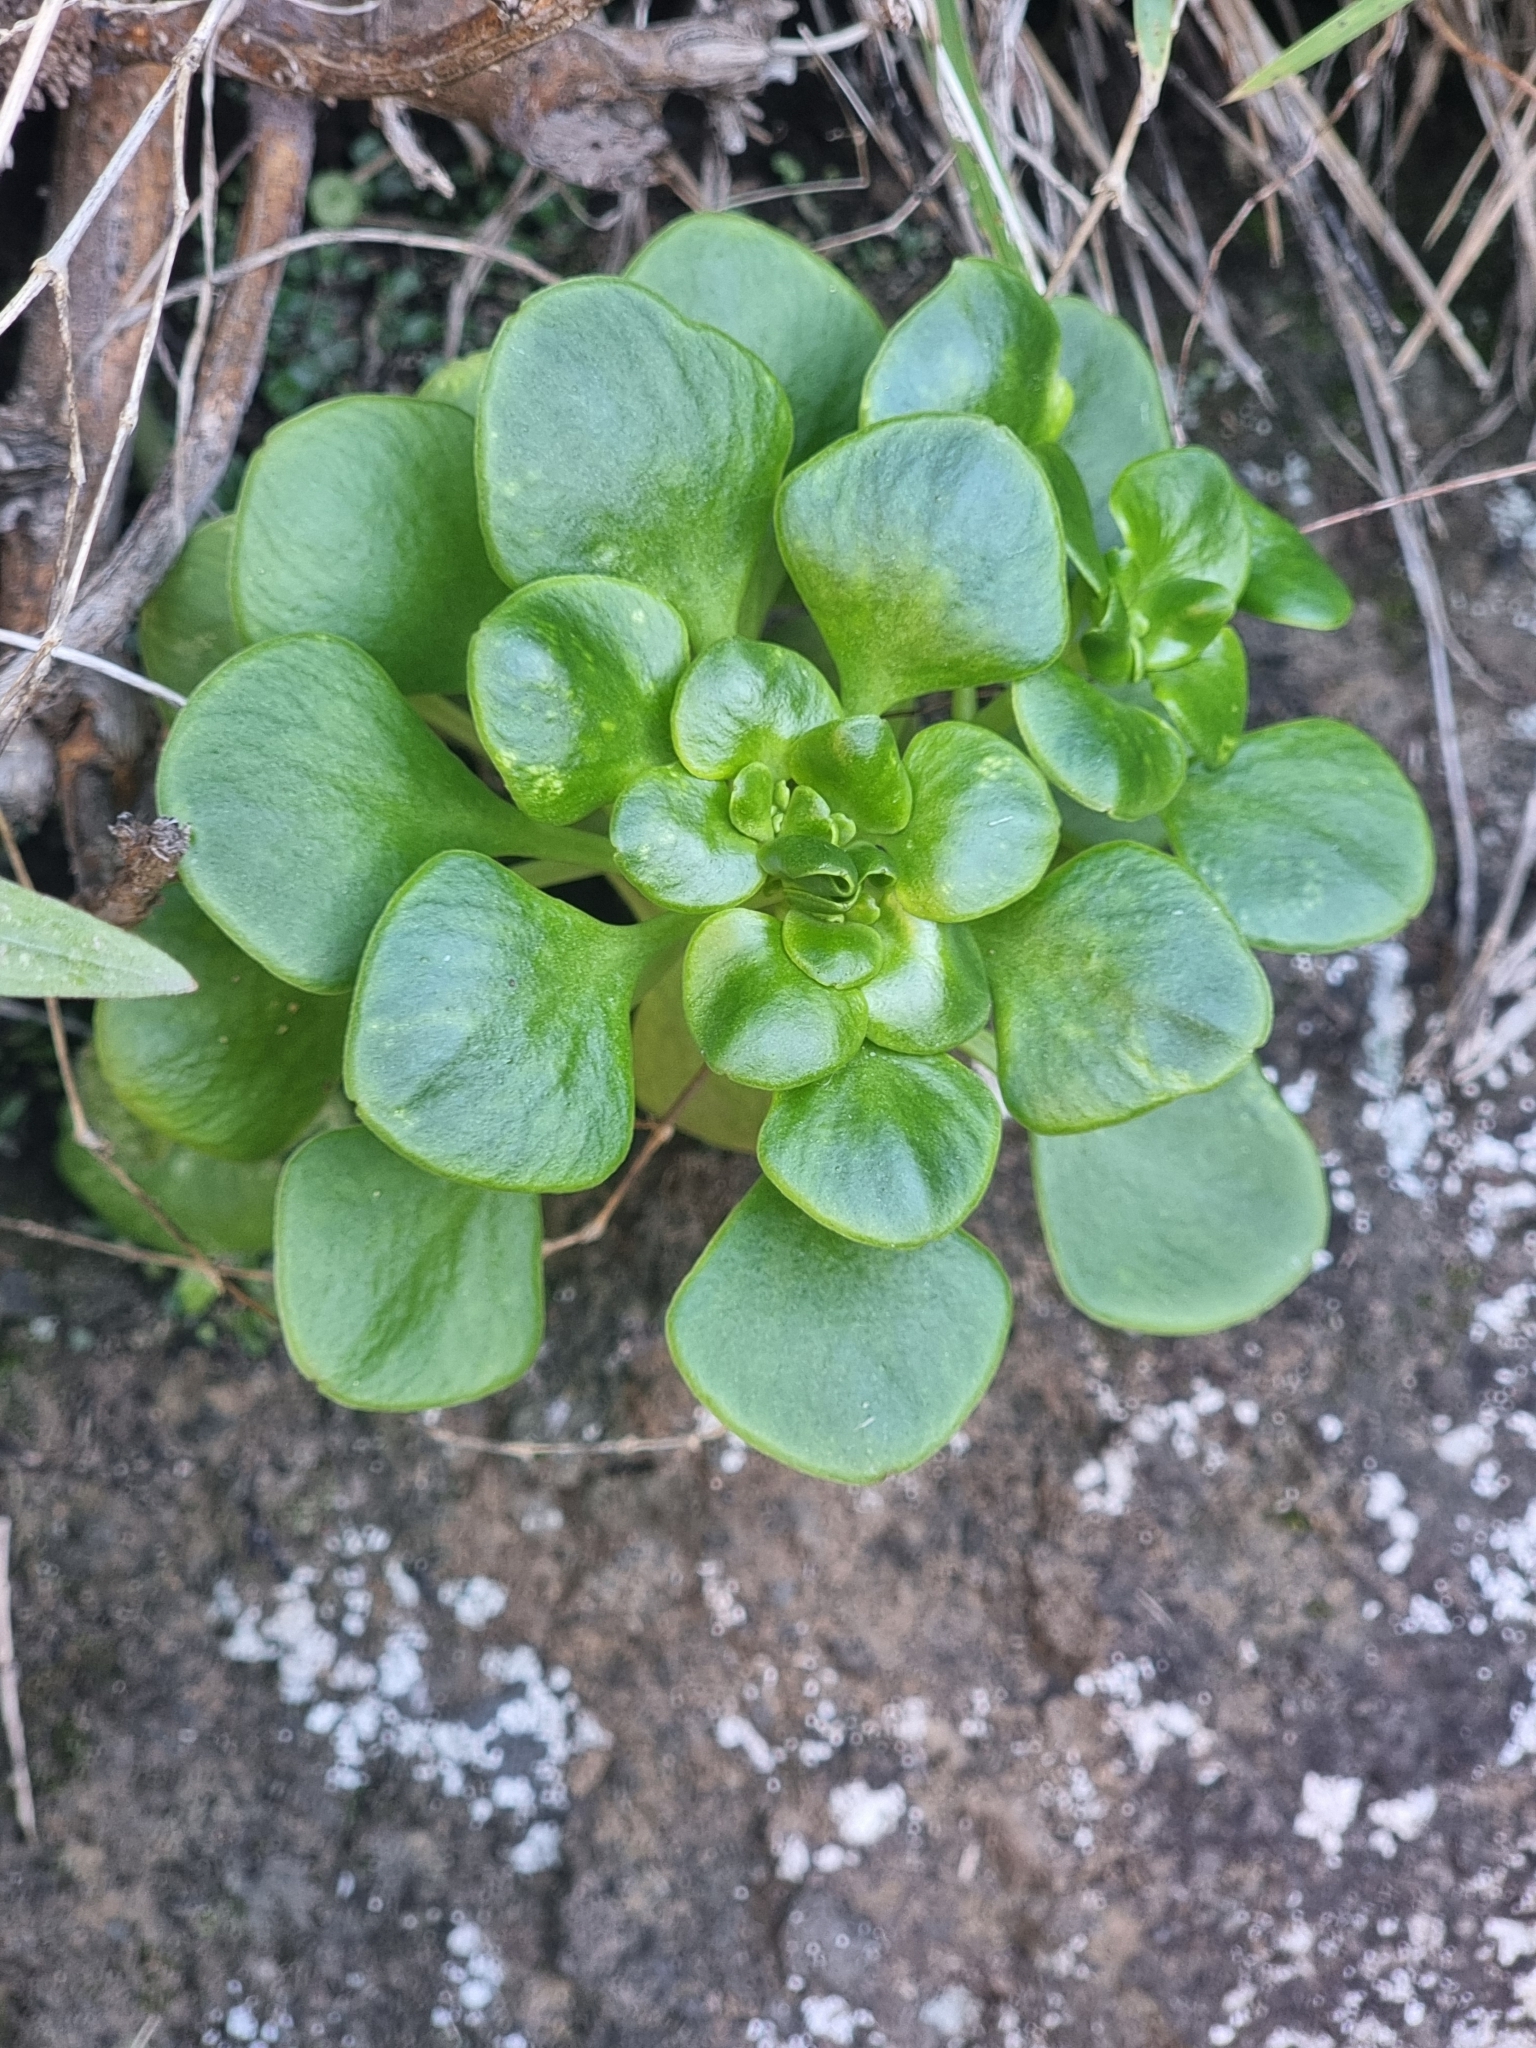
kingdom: Plantae
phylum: Tracheophyta
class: Magnoliopsida
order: Saxifragales
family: Crassulaceae
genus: Aichryson
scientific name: Aichryson divaricatum
